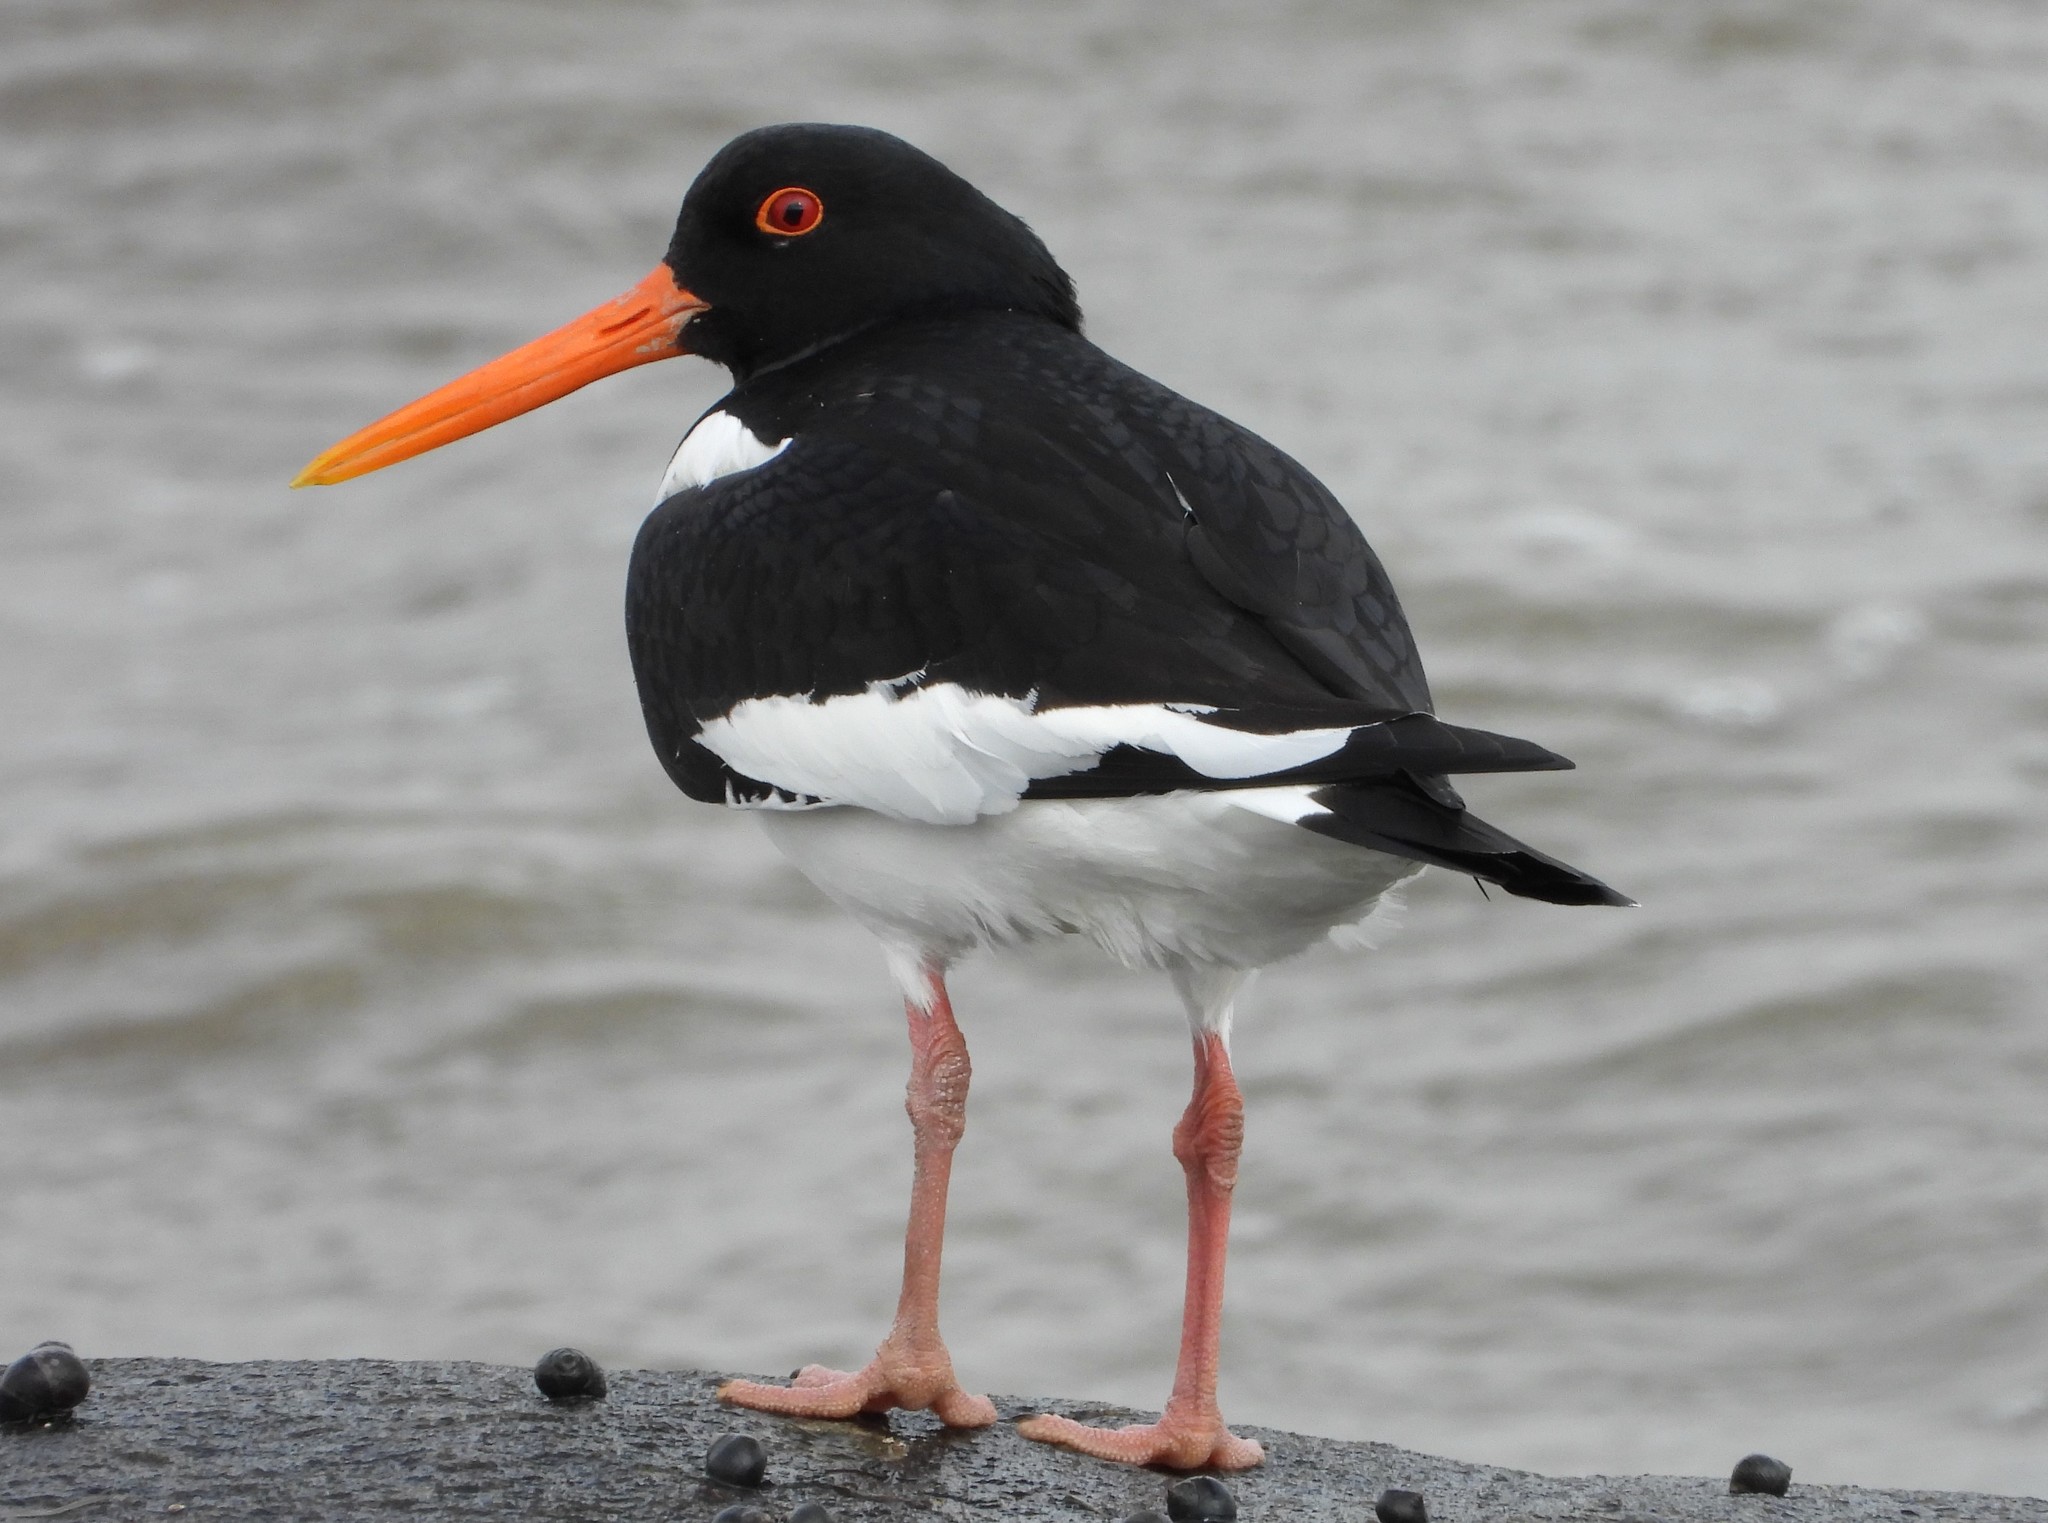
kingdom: Animalia
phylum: Chordata
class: Aves
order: Charadriiformes
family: Haematopodidae
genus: Haematopus
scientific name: Haematopus ostralegus
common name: Eurasian oystercatcher
